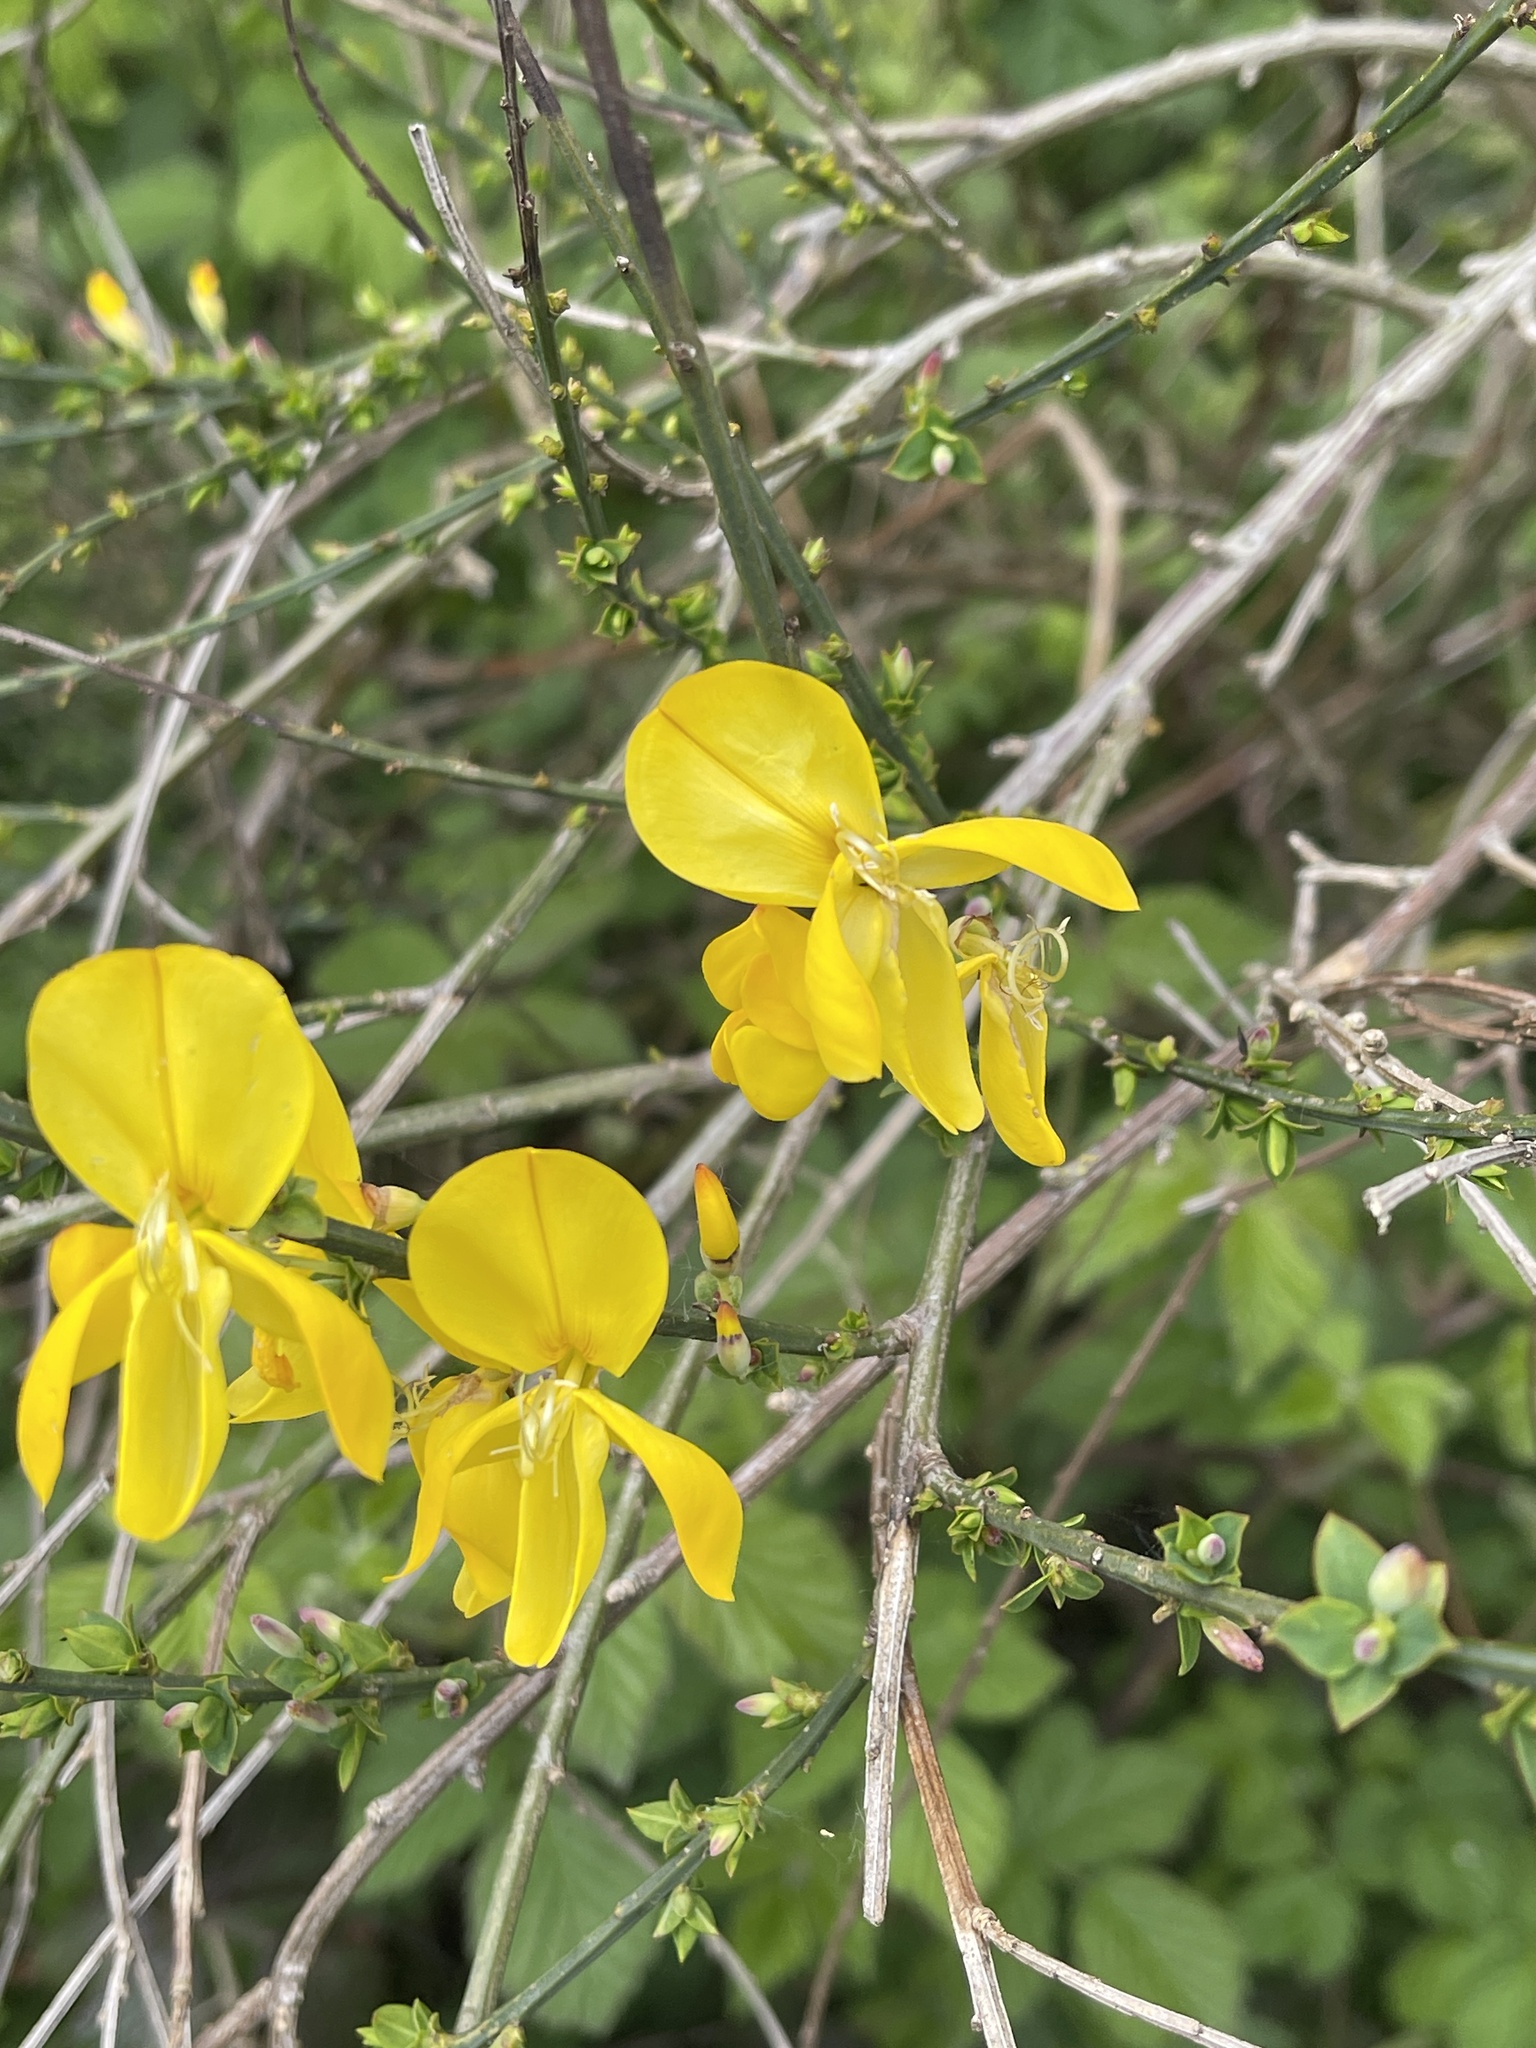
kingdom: Plantae
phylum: Tracheophyta
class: Magnoliopsida
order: Fabales
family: Fabaceae
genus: Cytisus
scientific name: Cytisus scoparius
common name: Scotch broom
